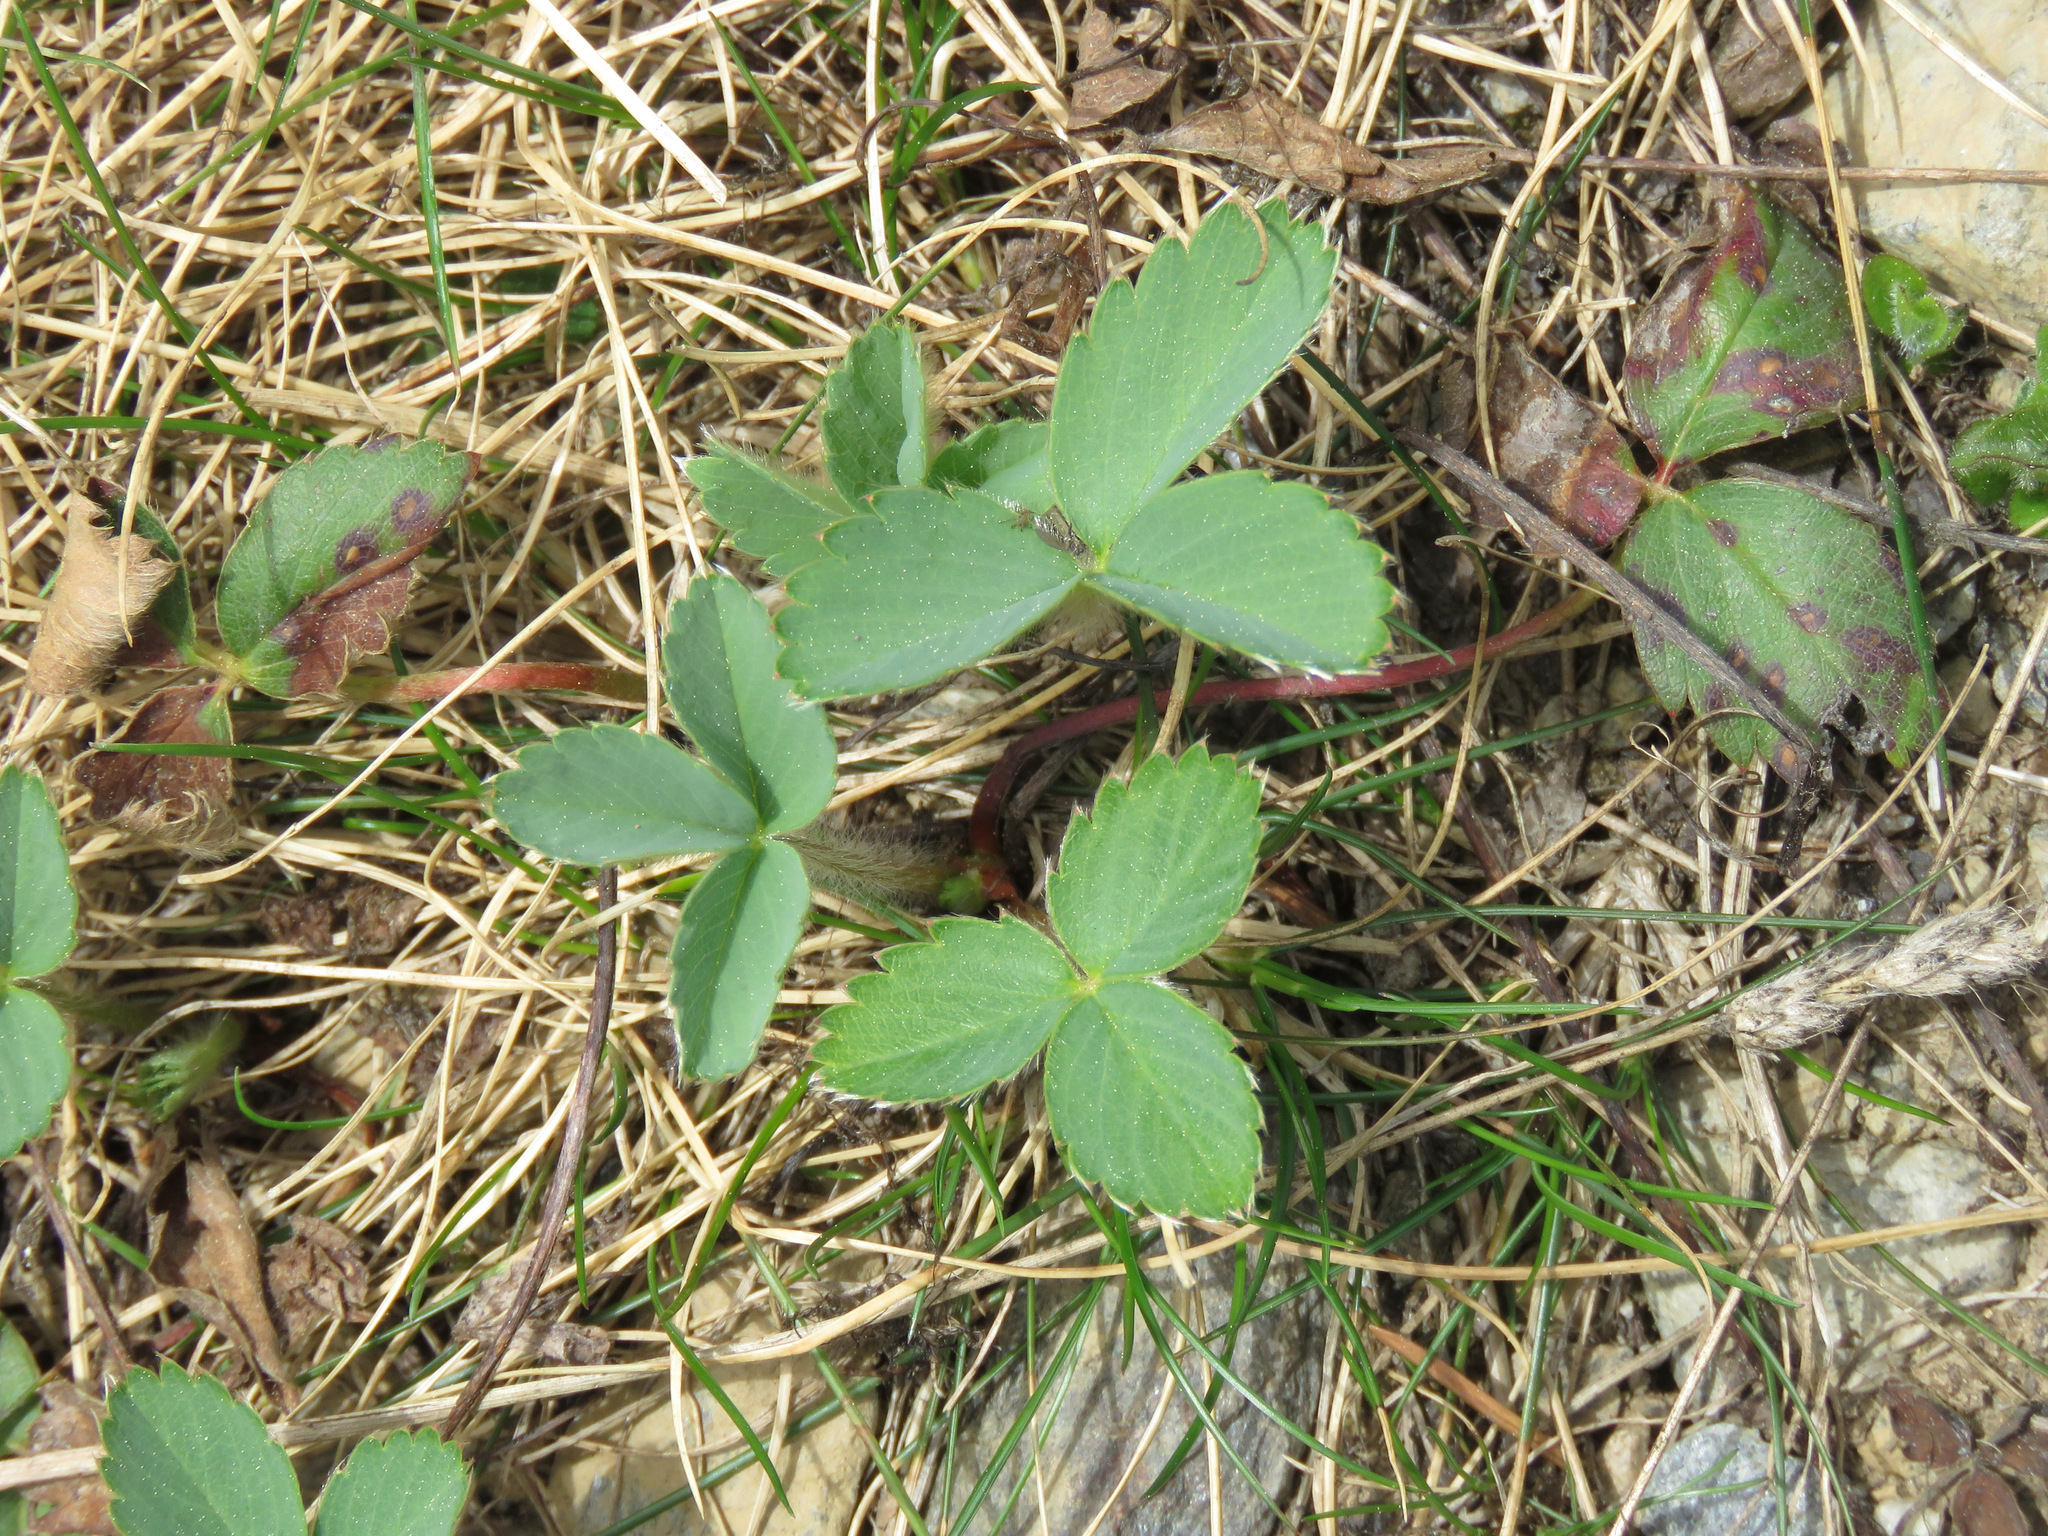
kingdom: Plantae
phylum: Tracheophyta
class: Magnoliopsida
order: Rosales
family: Rosaceae
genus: Fragaria
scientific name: Fragaria virginiana
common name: Thickleaved wild strawberry
